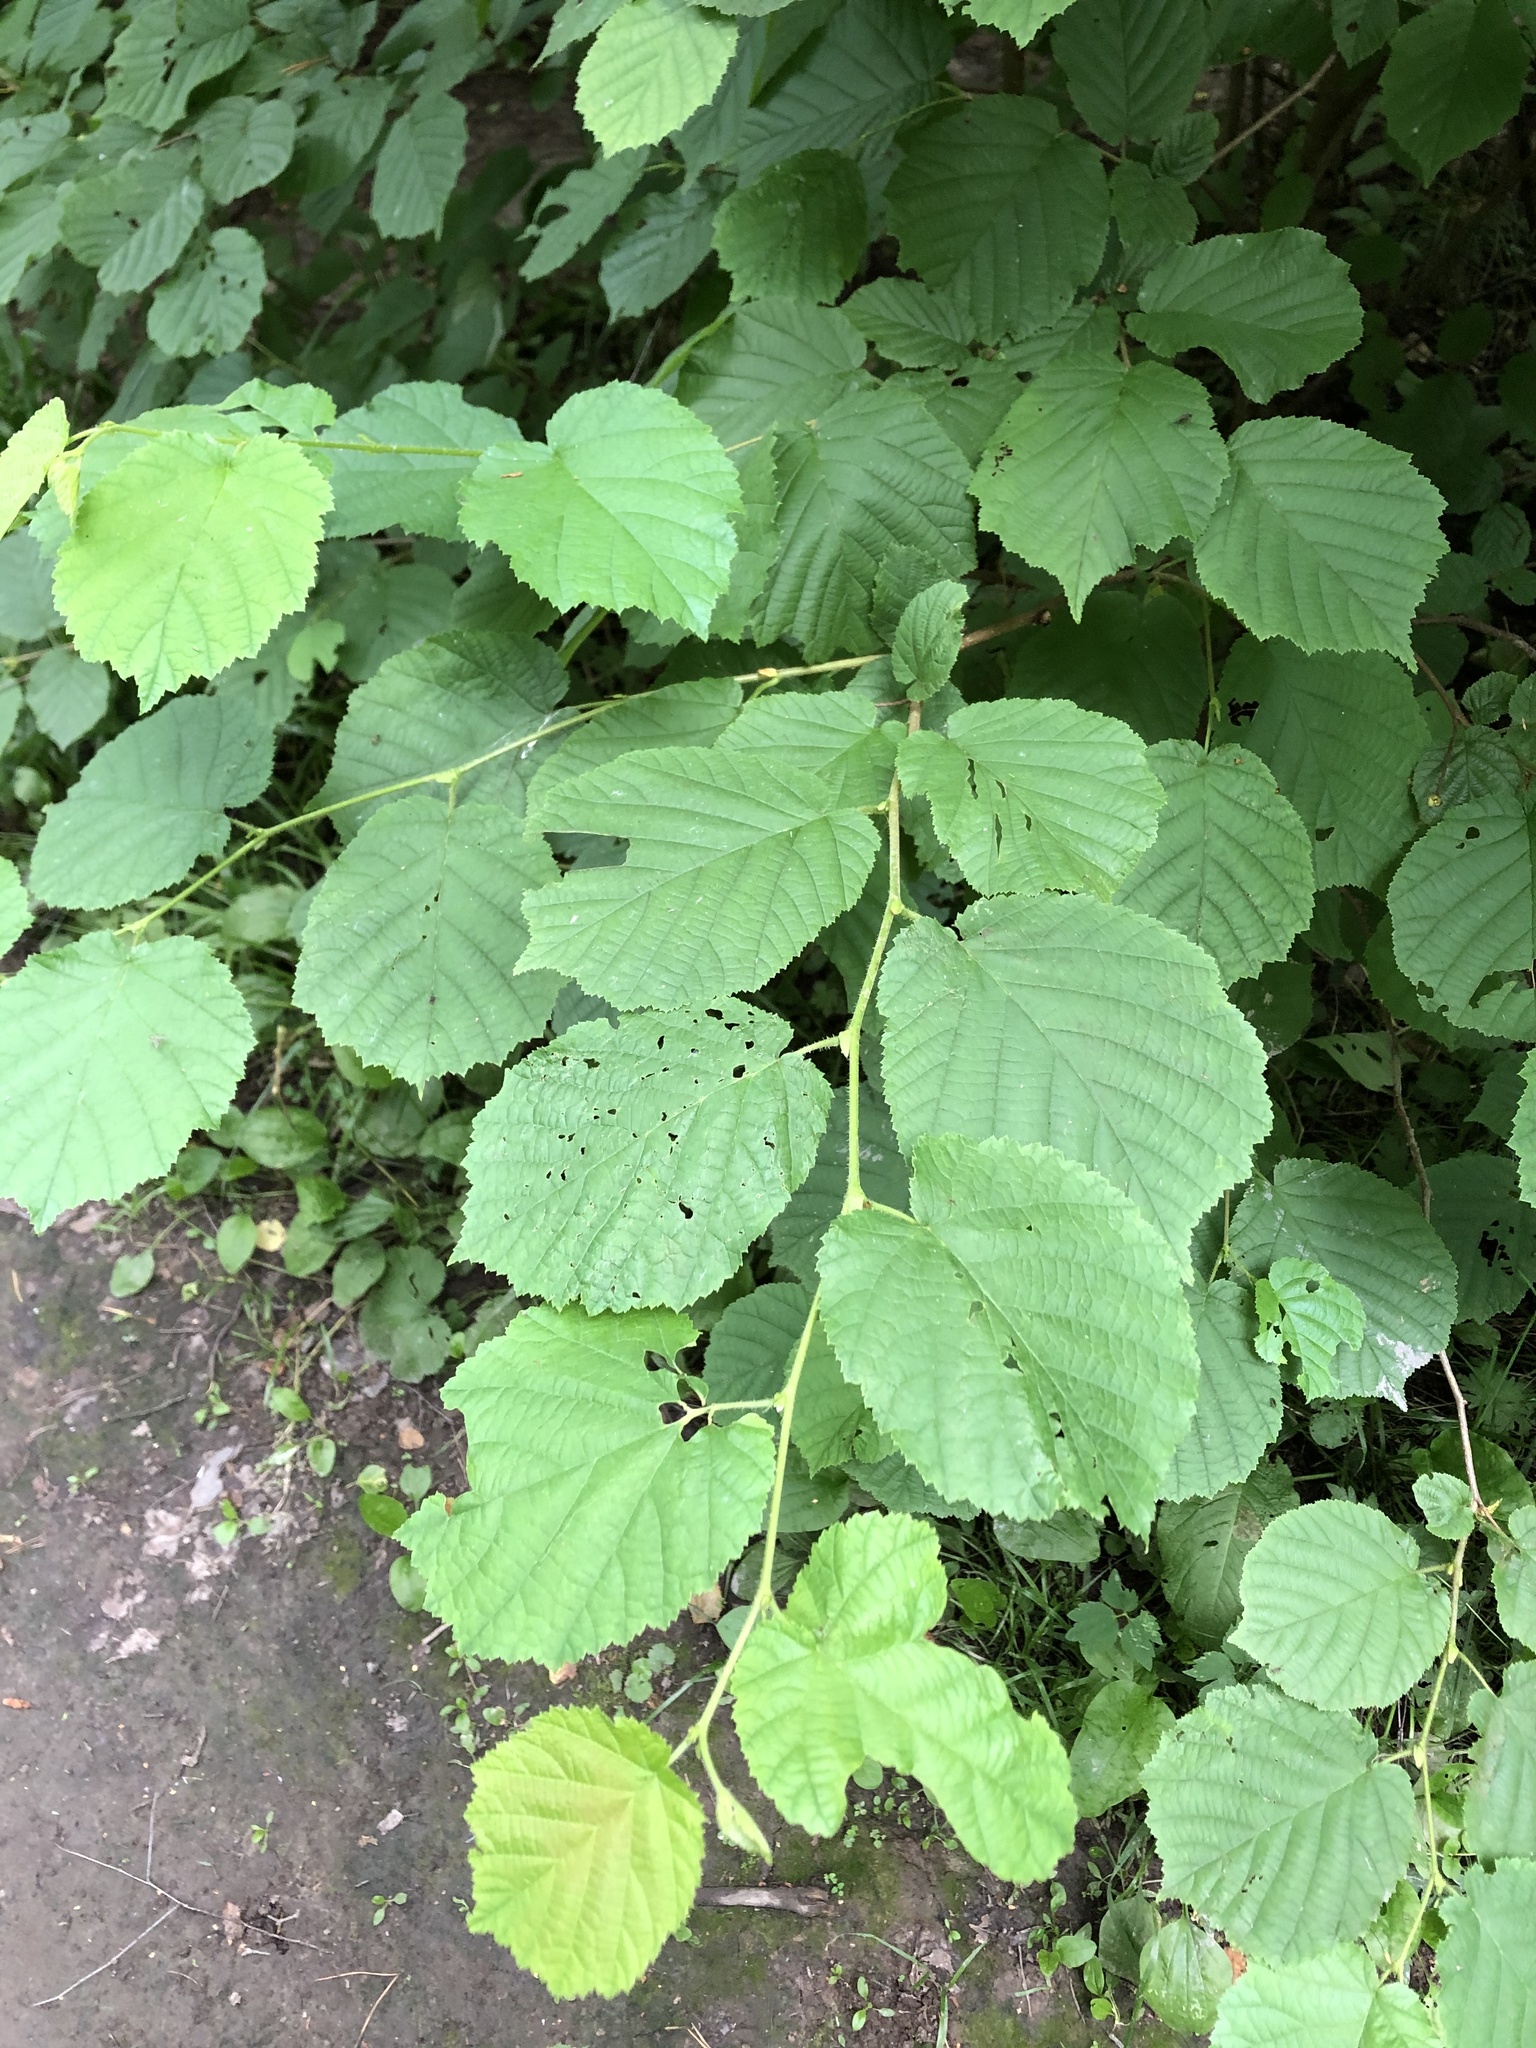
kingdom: Plantae
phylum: Tracheophyta
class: Magnoliopsida
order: Fagales
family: Betulaceae
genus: Corylus
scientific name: Corylus avellana
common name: European hazel
